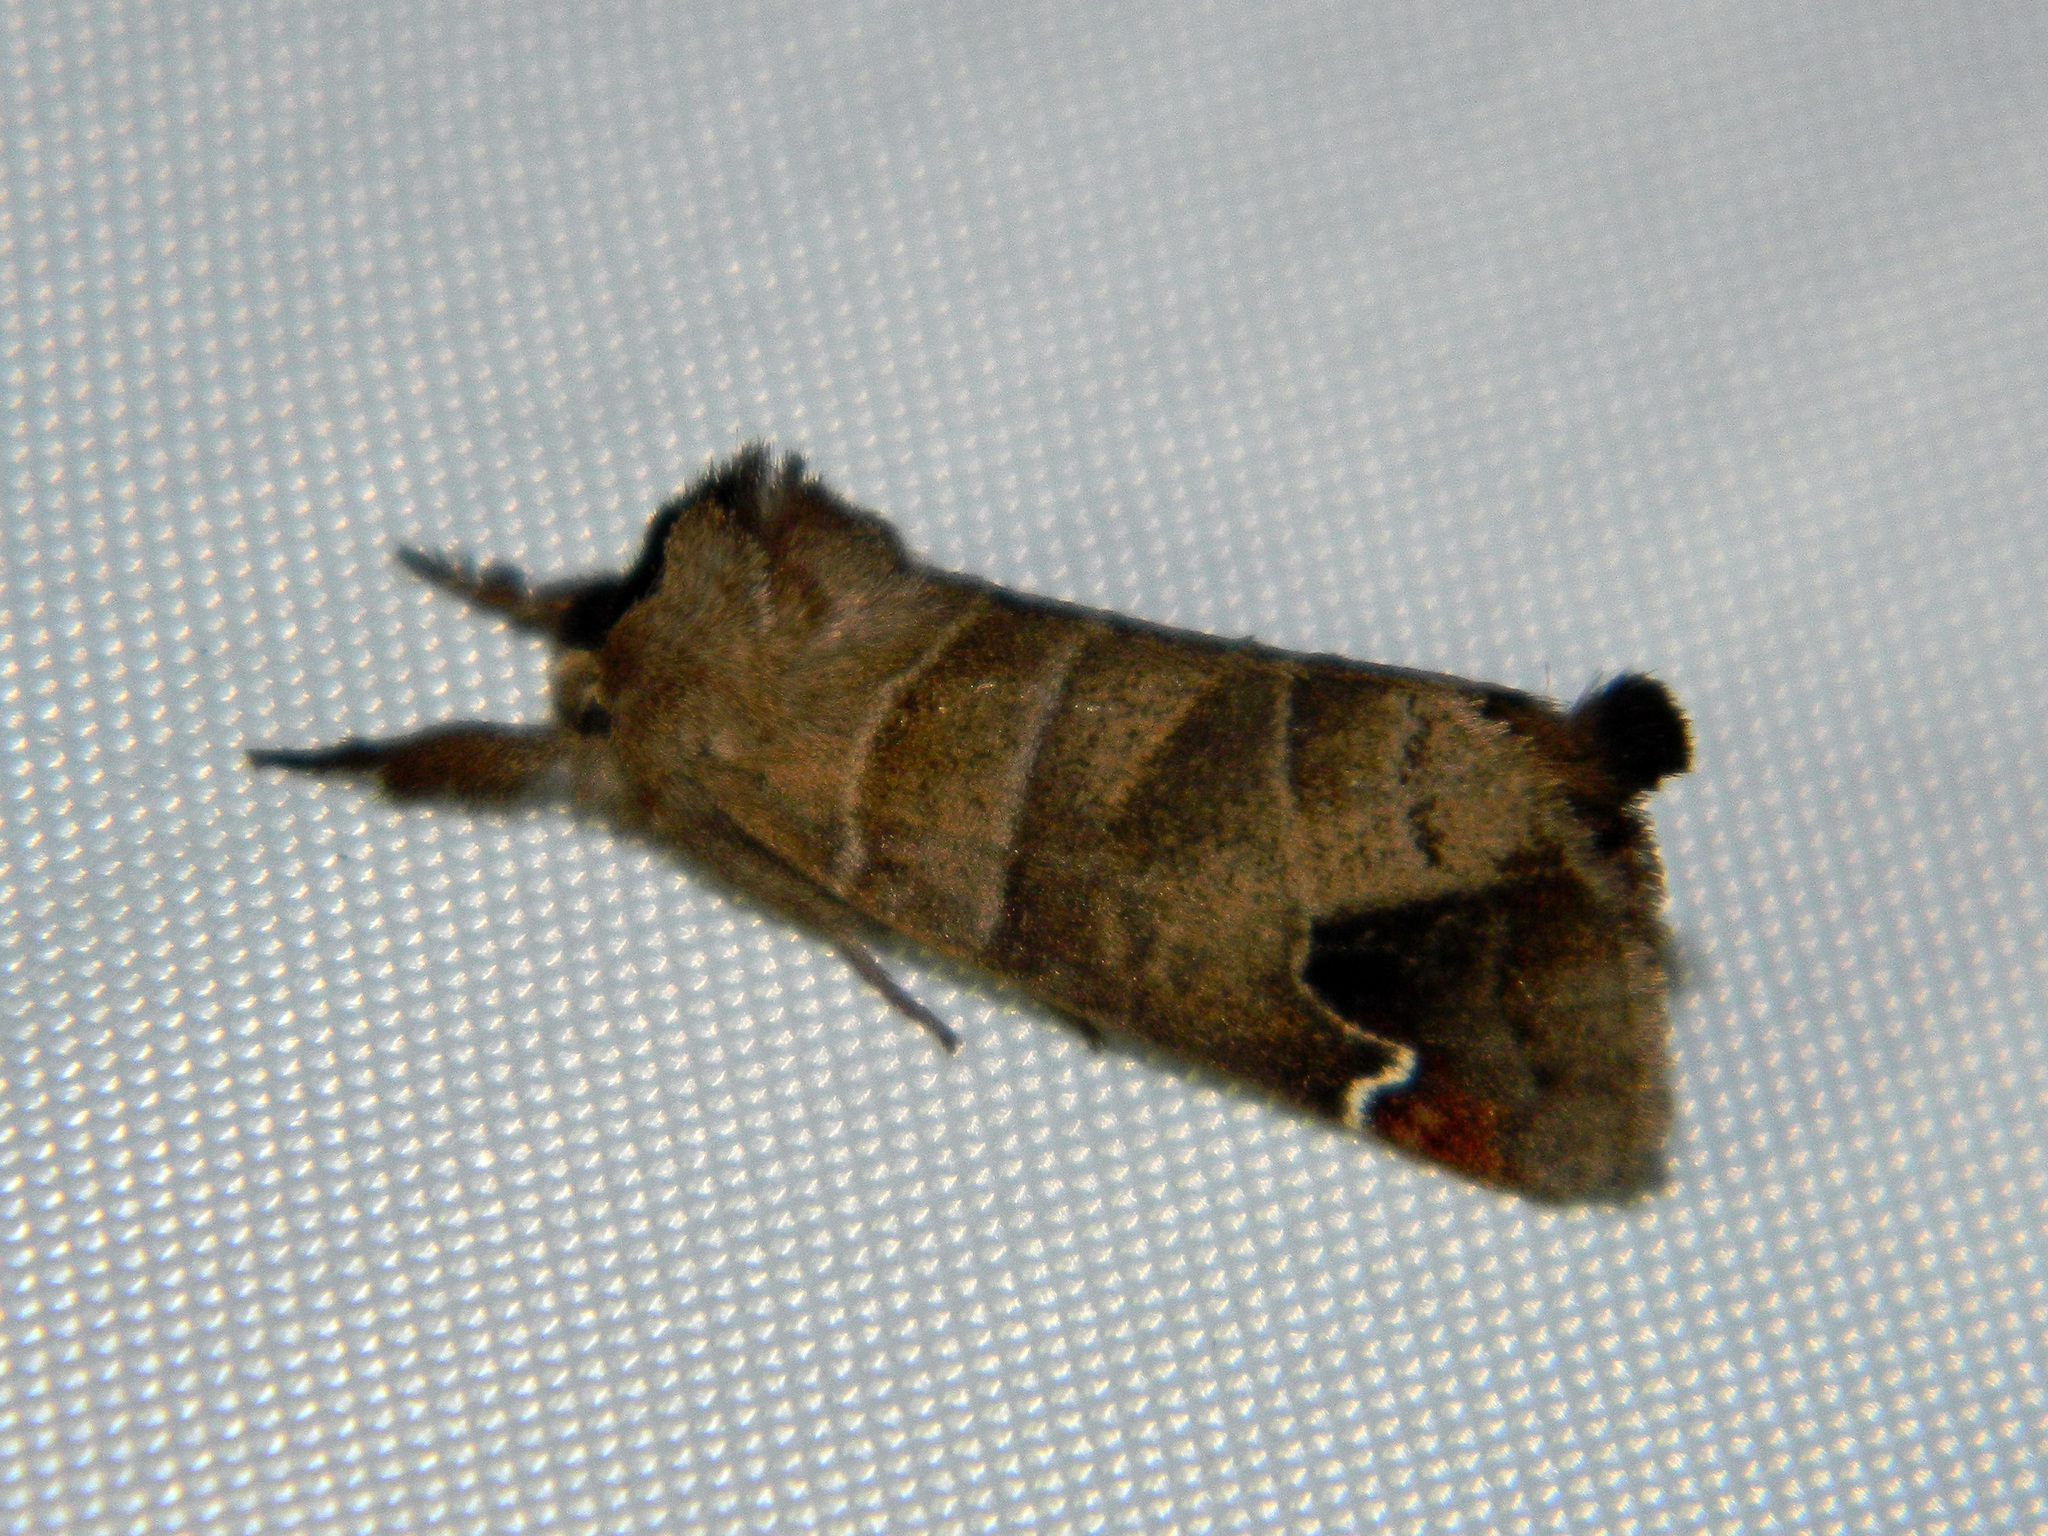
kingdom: Animalia
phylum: Arthropoda
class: Insecta
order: Lepidoptera
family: Notodontidae
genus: Clostera
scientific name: Clostera albosigma
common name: Sigmoid prominent
